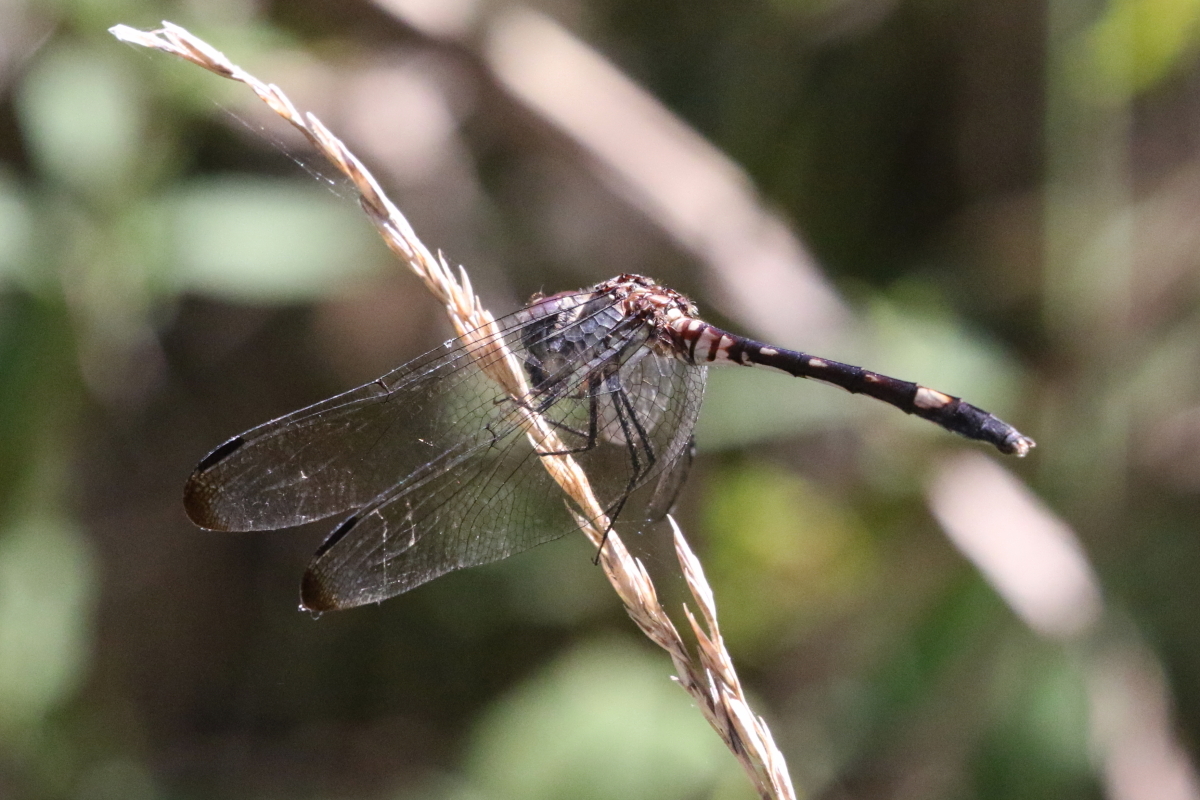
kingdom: Animalia
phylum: Arthropoda
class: Insecta
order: Odonata
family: Libellulidae
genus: Dythemis
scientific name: Dythemis velox
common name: Swift setwing
